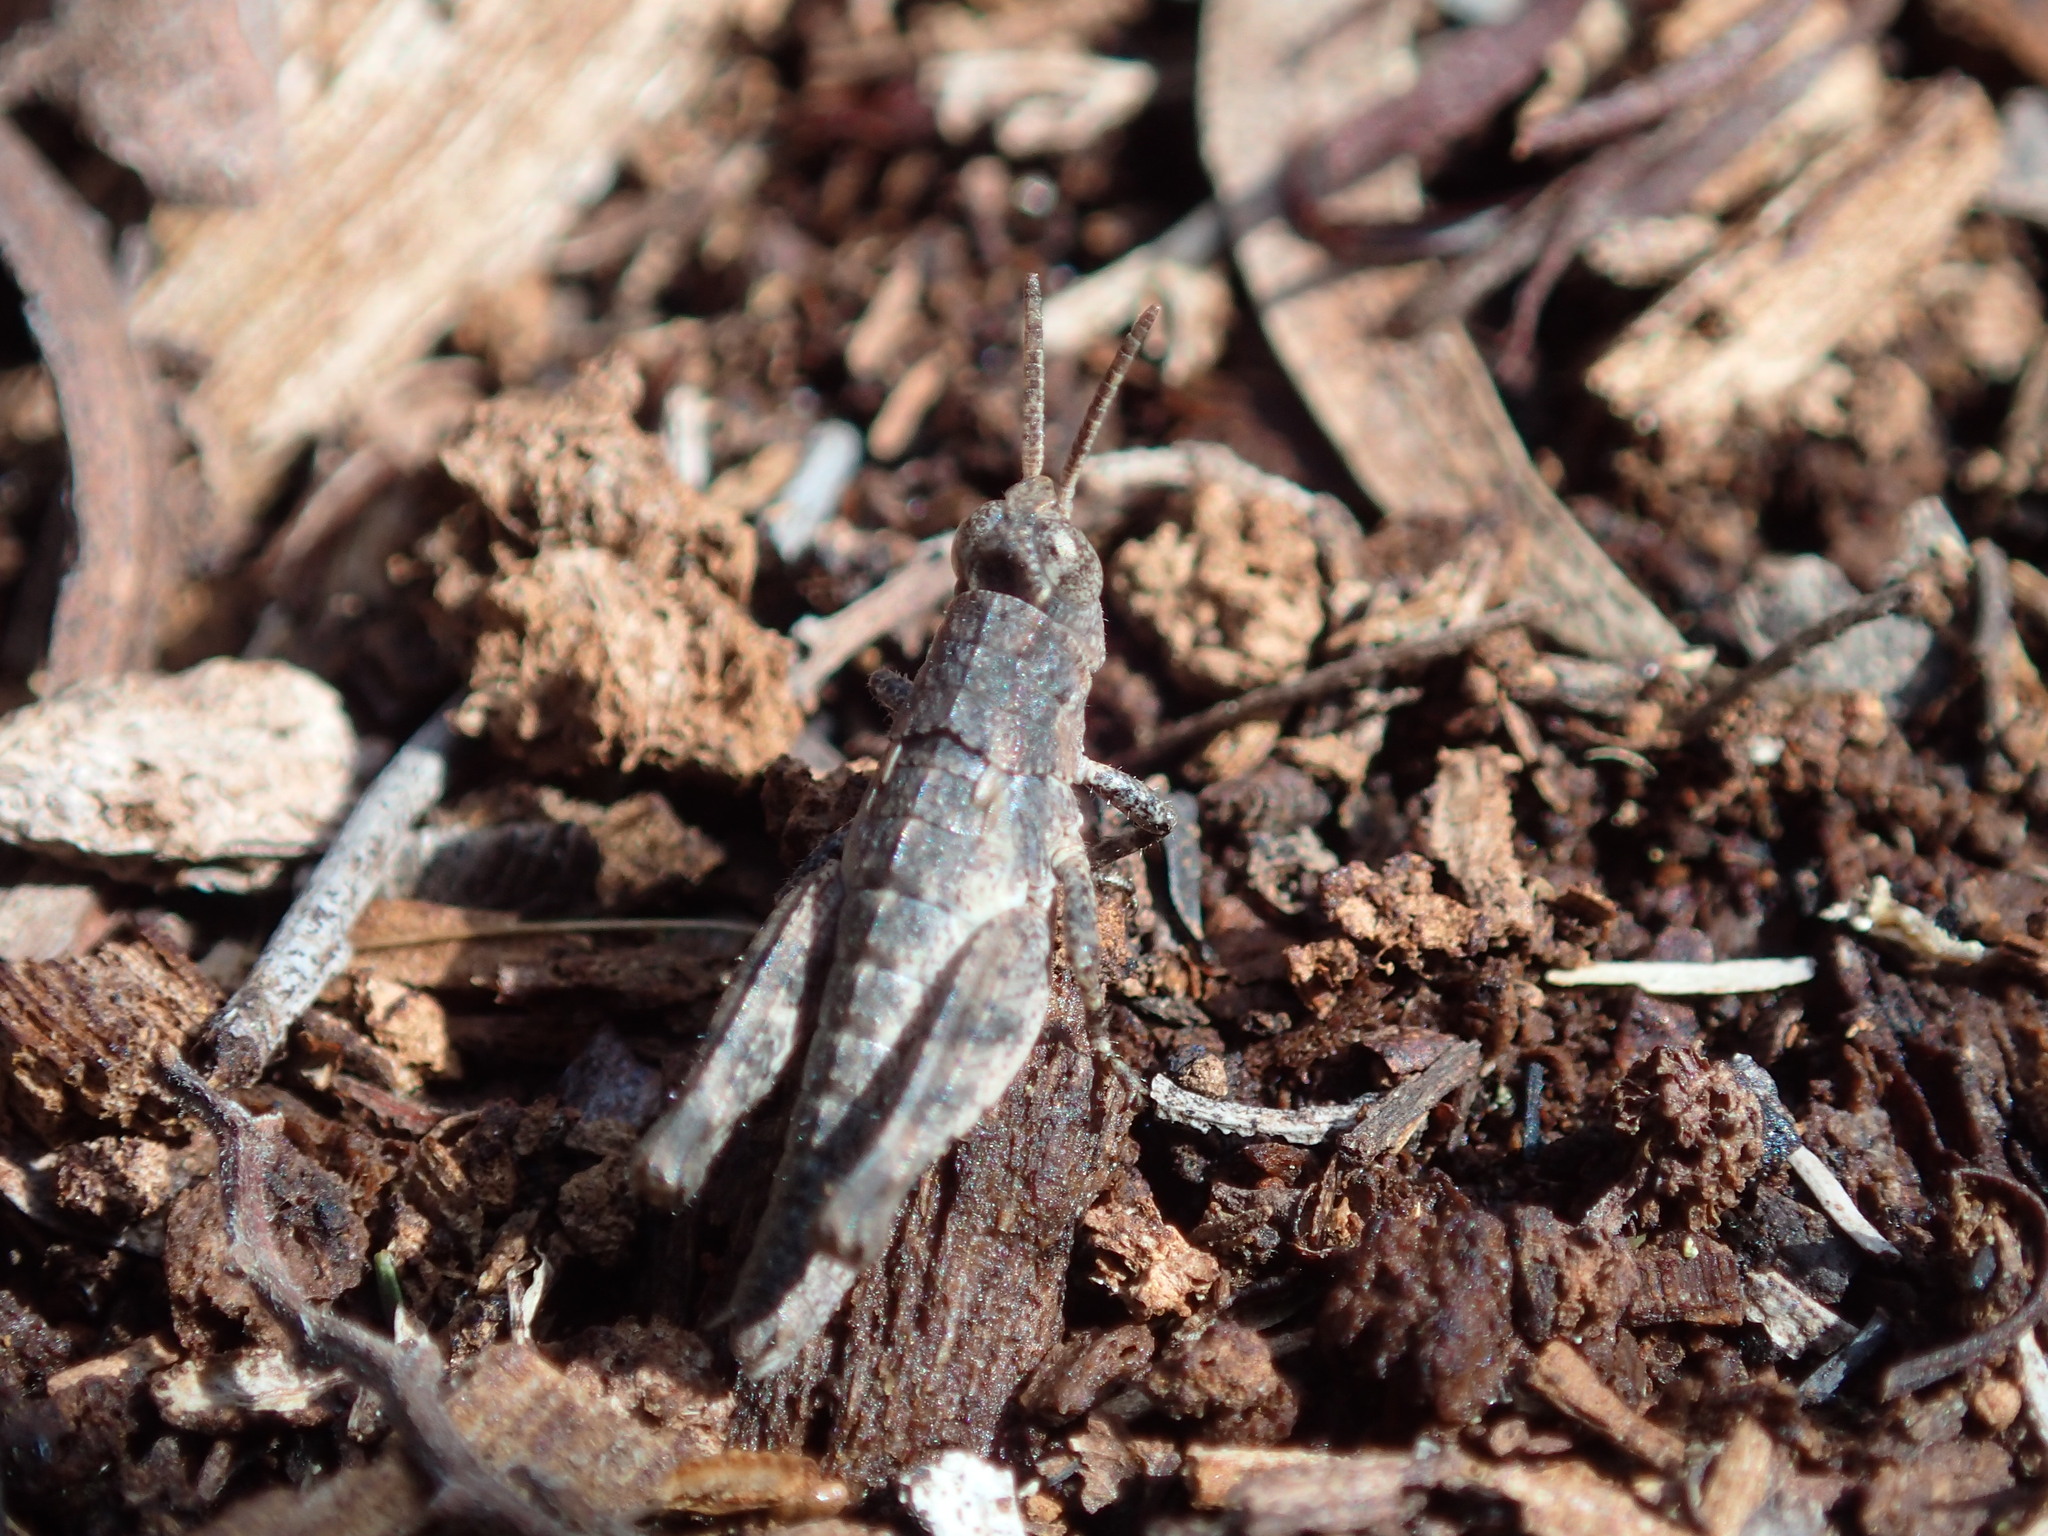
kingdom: Animalia
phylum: Arthropoda
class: Insecta
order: Orthoptera
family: Acrididae
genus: Tasmaniacris
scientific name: Tasmaniacris tasmaniensis
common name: Tasmanian grasshopper
